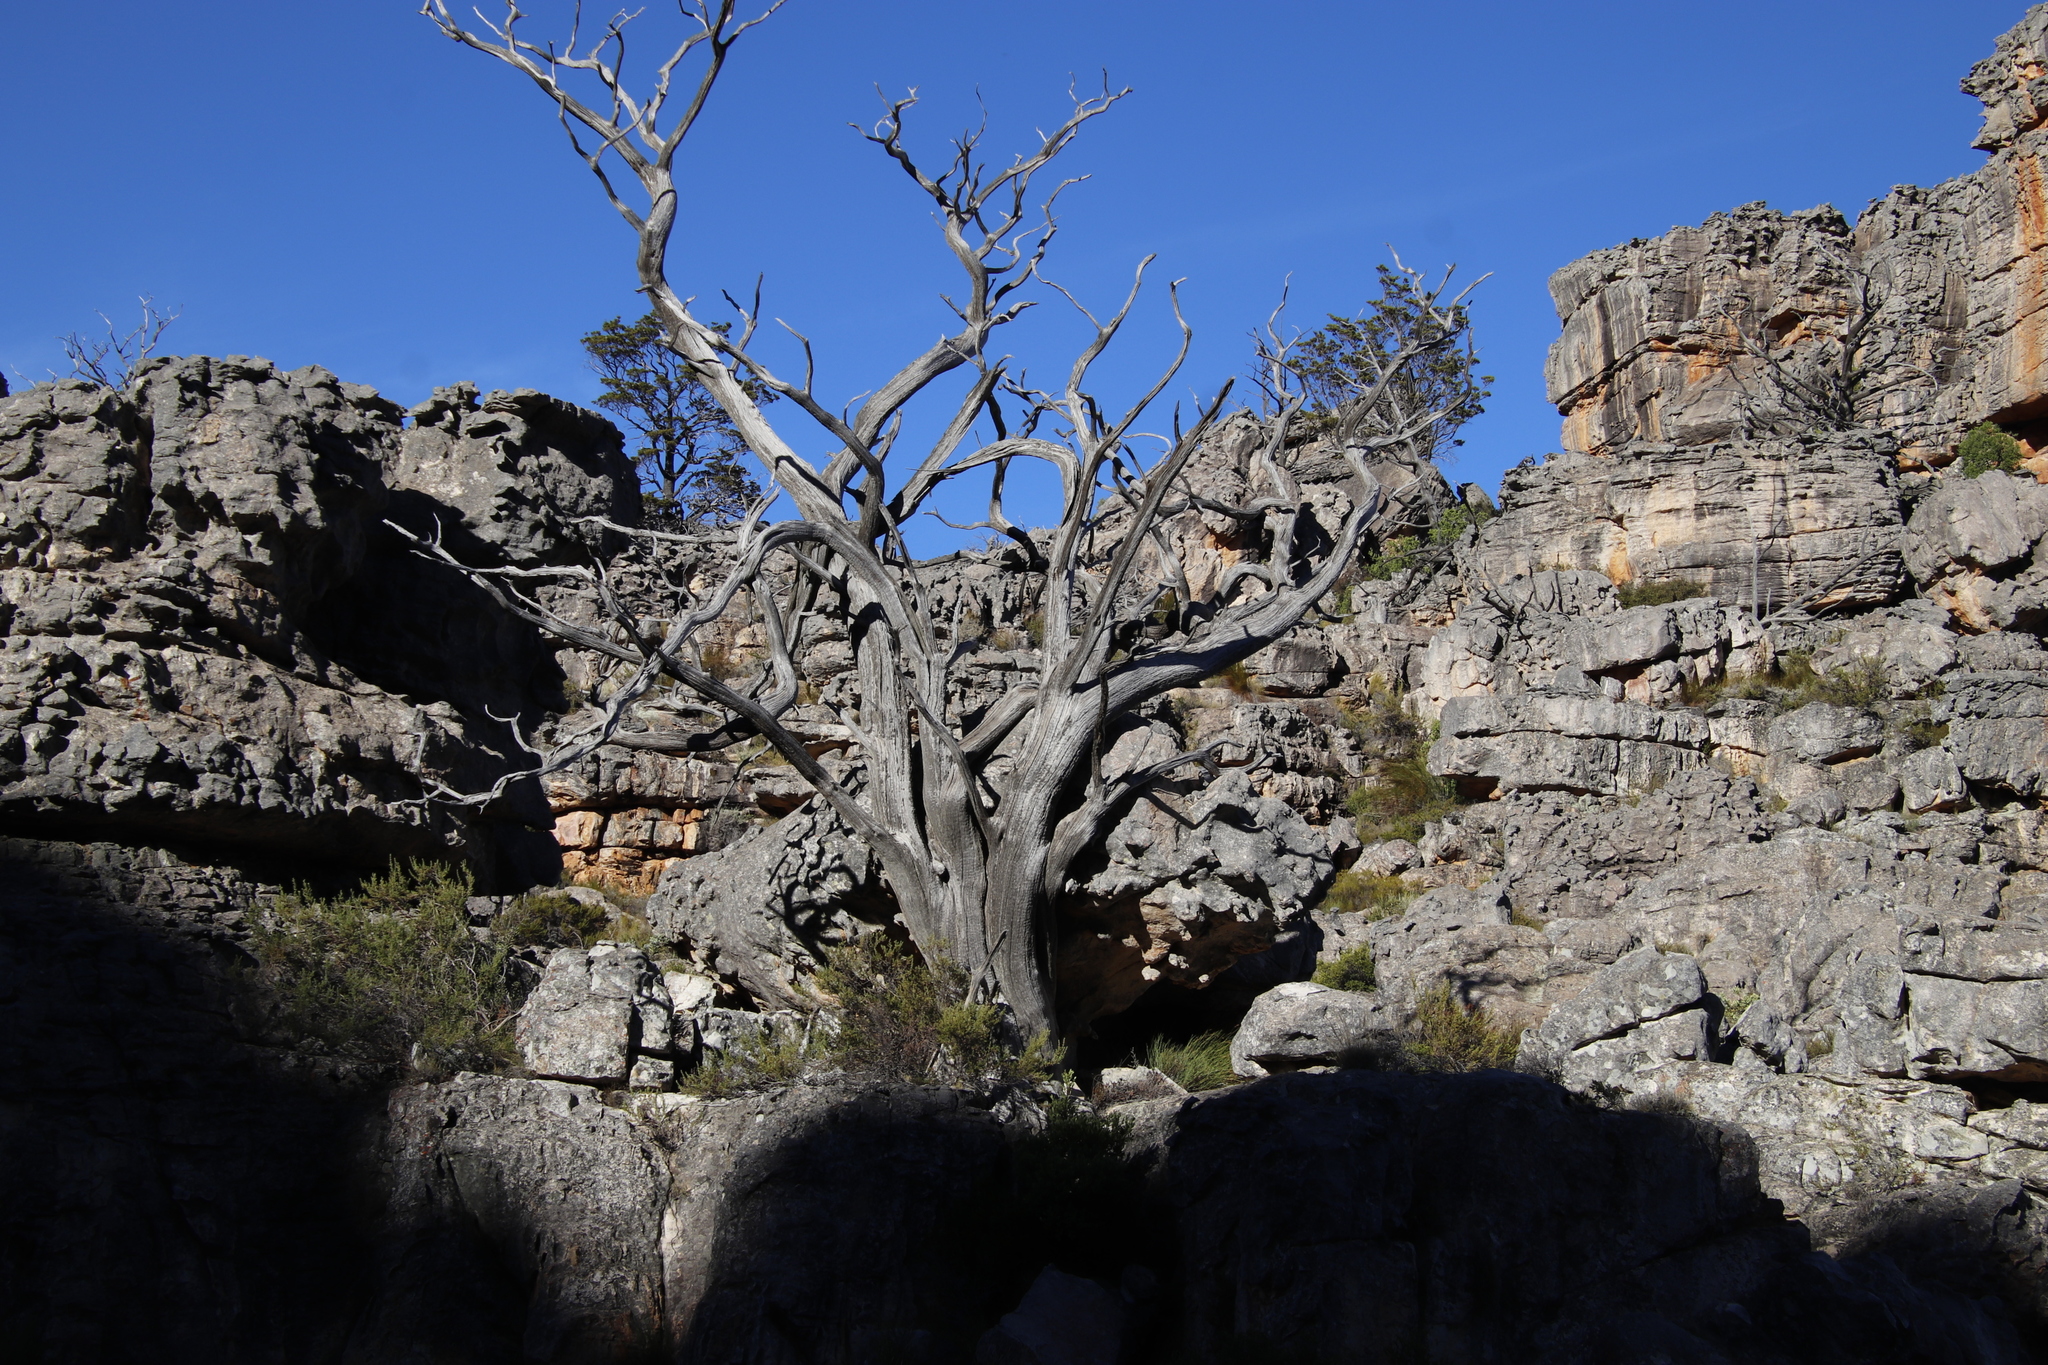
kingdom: Plantae
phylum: Tracheophyta
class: Pinopsida
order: Pinales
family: Cupressaceae
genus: Widdringtonia
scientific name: Widdringtonia nodiflora
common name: Cape cypress
